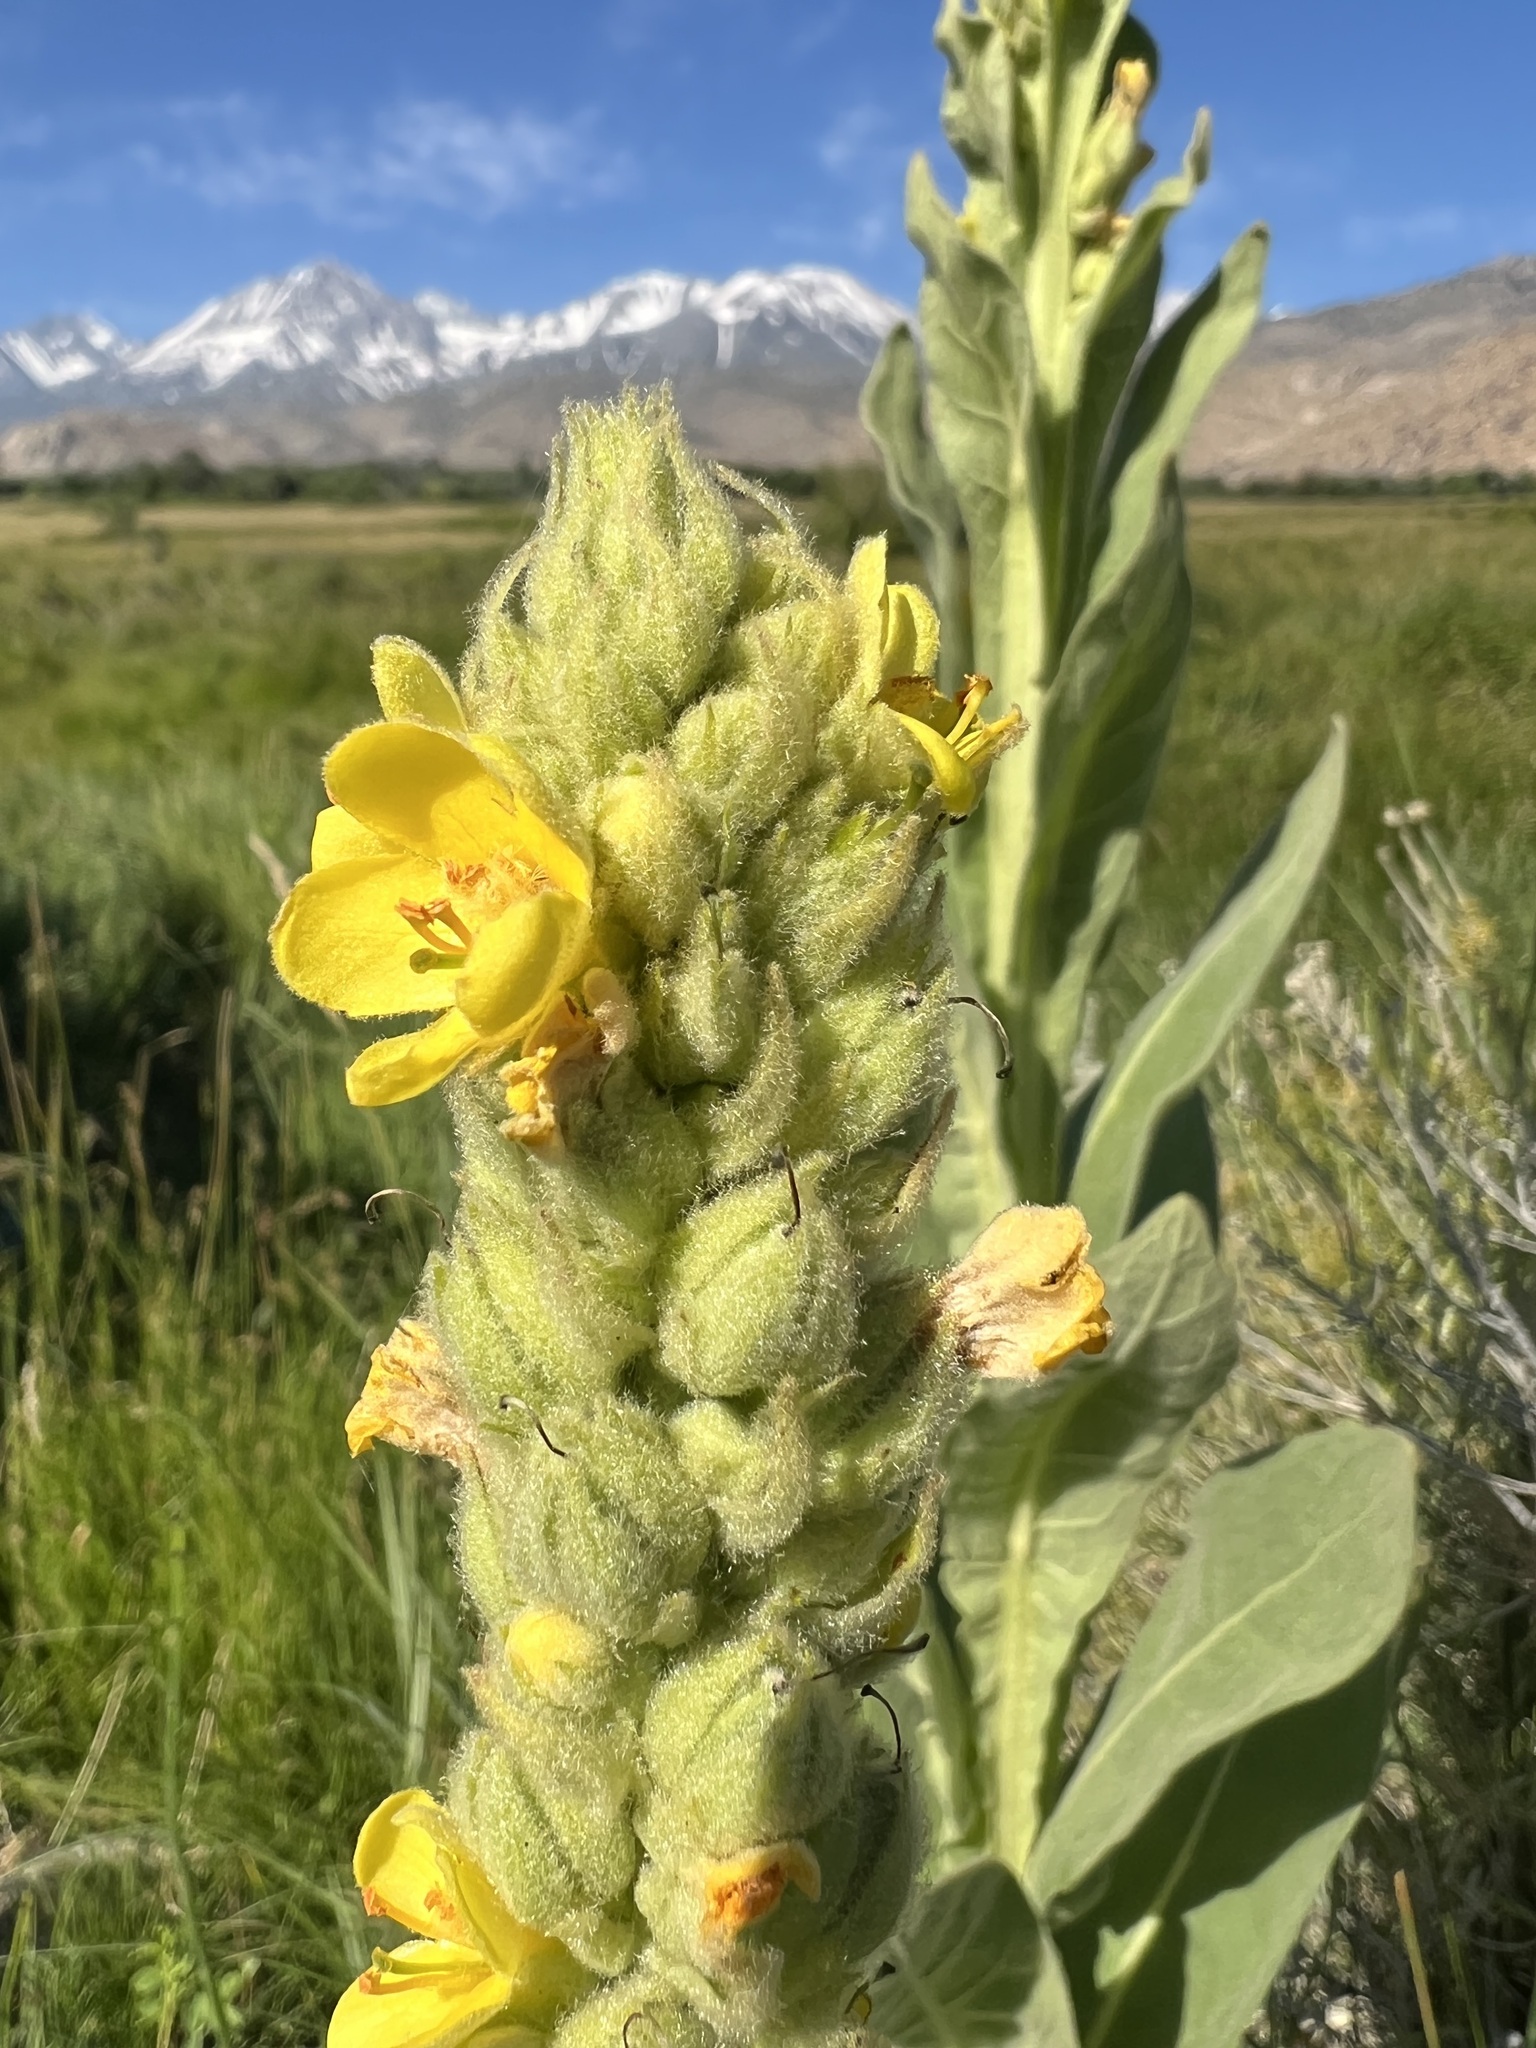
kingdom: Plantae
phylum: Tracheophyta
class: Magnoliopsida
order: Lamiales
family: Scrophulariaceae
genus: Verbascum
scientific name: Verbascum thapsus
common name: Common mullein
